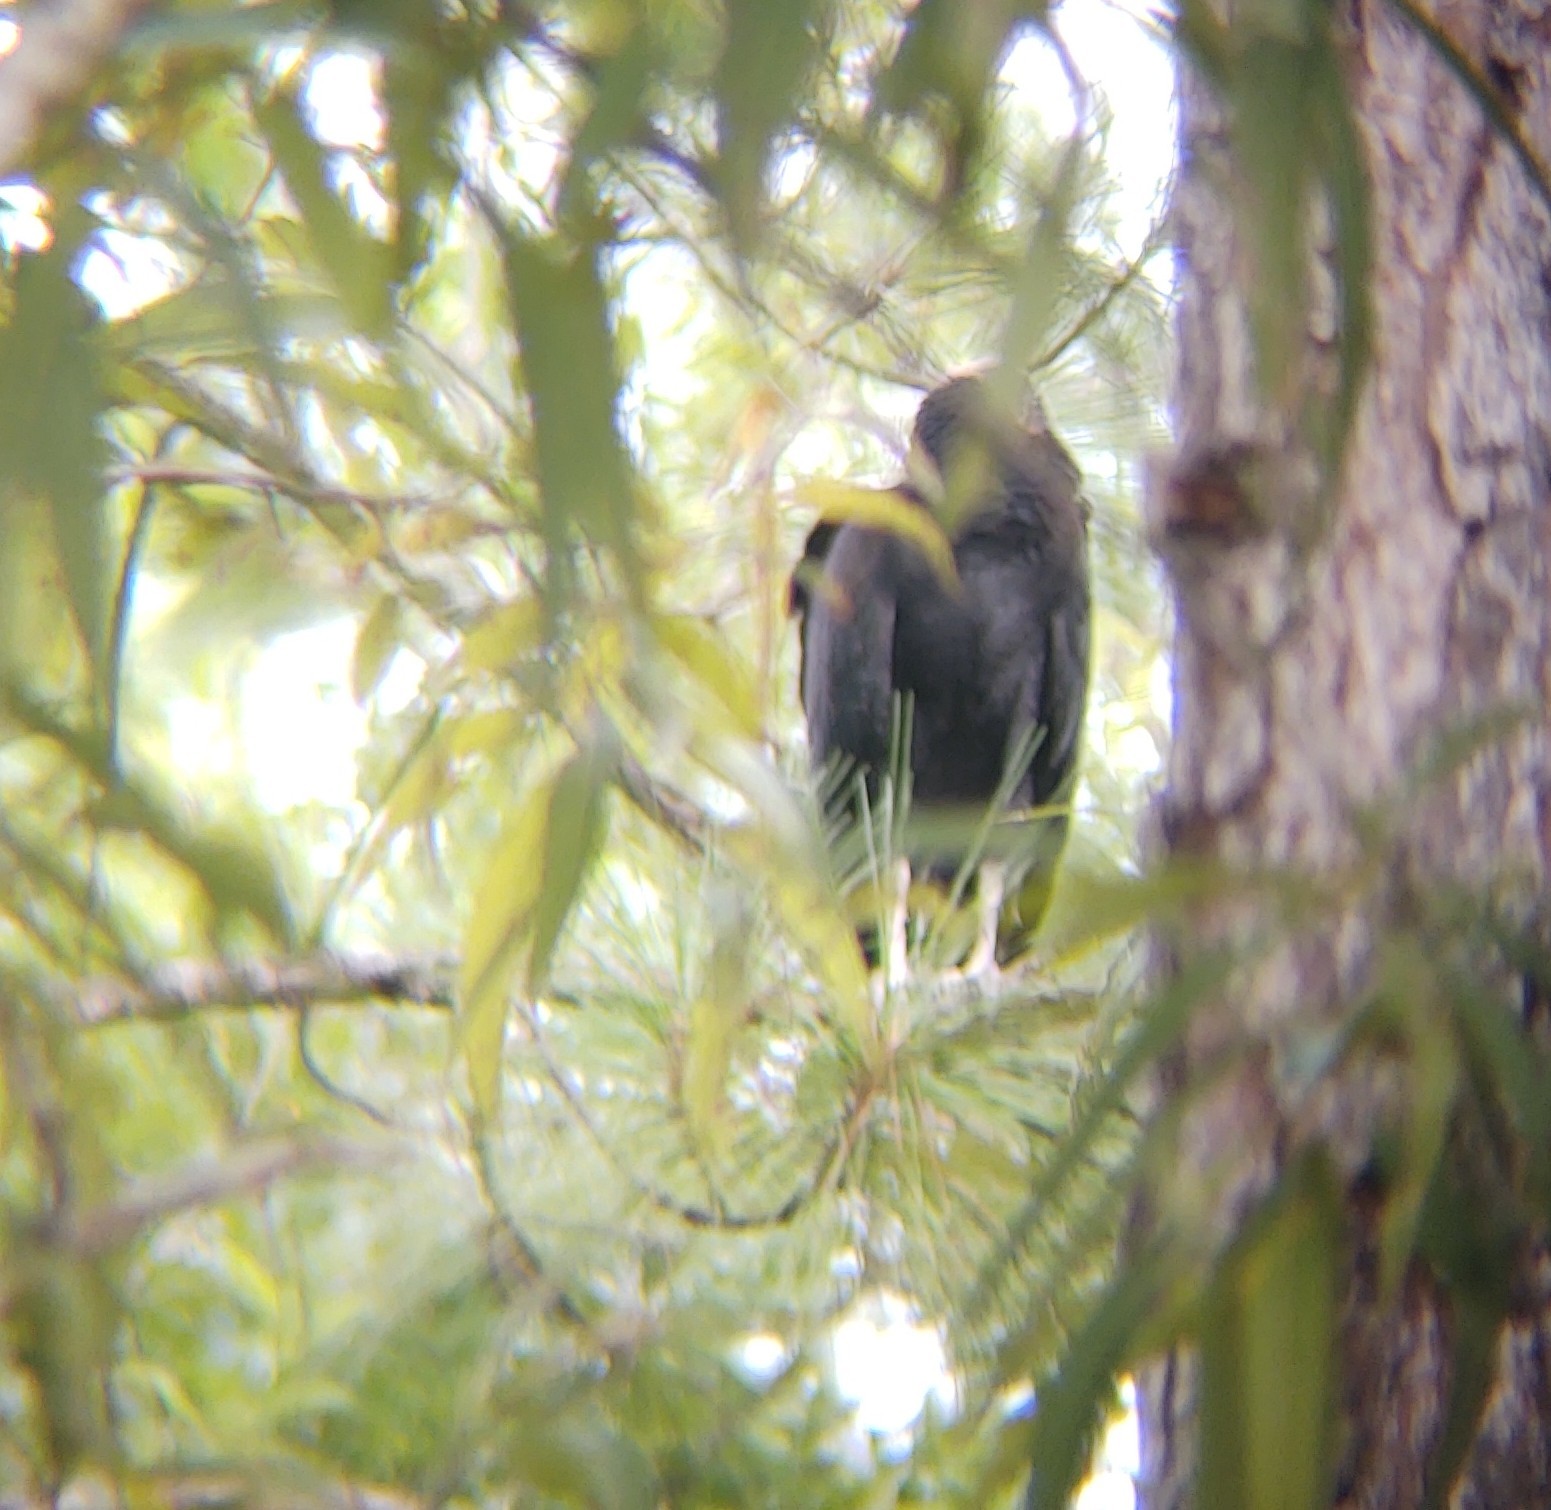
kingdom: Animalia
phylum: Chordata
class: Aves
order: Accipitriformes
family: Cathartidae
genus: Coragyps
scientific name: Coragyps atratus
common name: Black vulture
